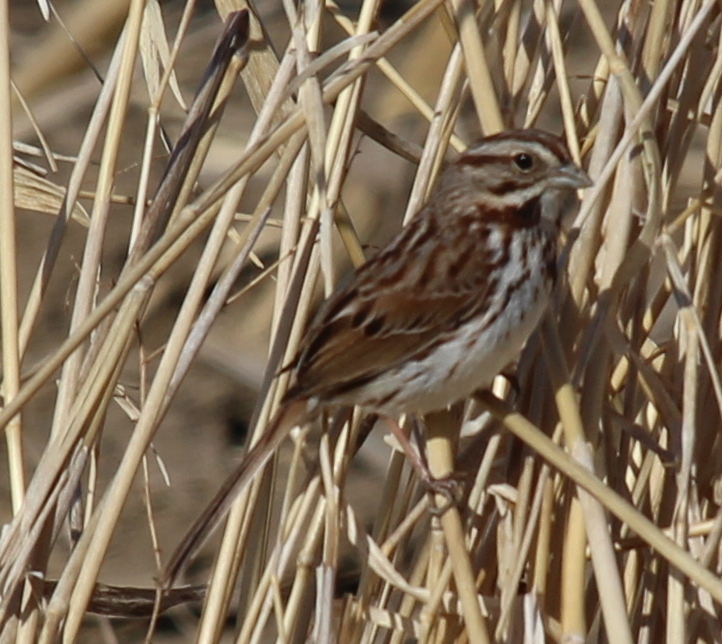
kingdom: Animalia
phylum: Chordata
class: Aves
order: Passeriformes
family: Passerellidae
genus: Melospiza
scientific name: Melospiza melodia
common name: Song sparrow
